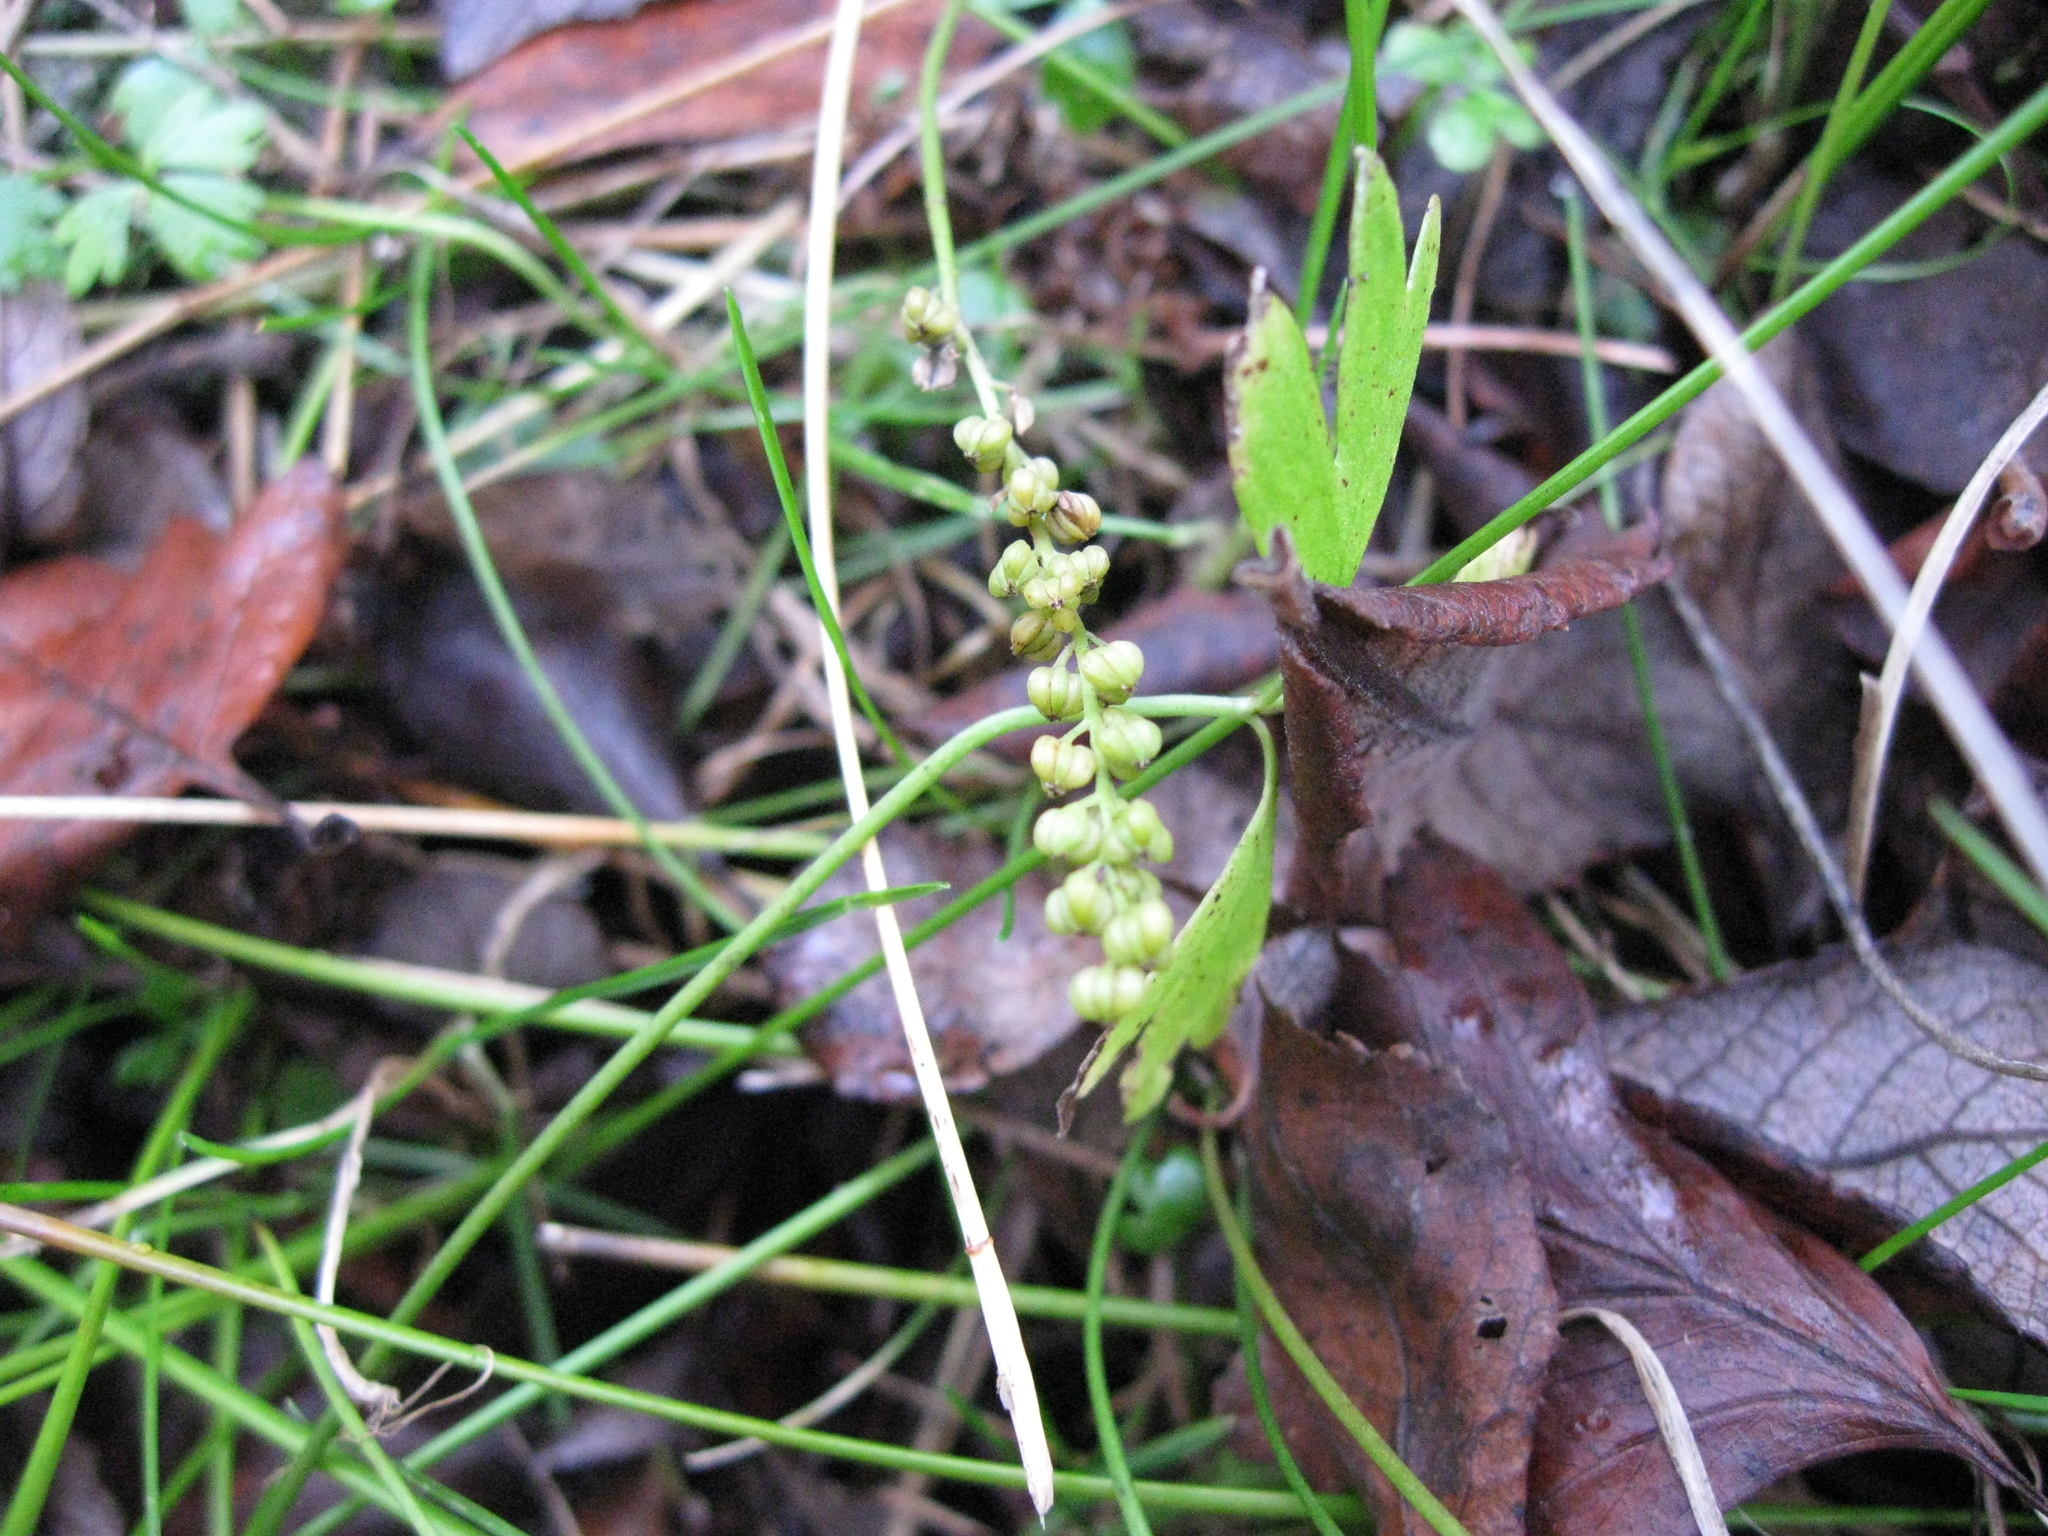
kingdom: Plantae
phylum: Tracheophyta
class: Liliopsida
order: Alismatales
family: Juncaginaceae
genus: Triglochin
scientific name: Triglochin striata
